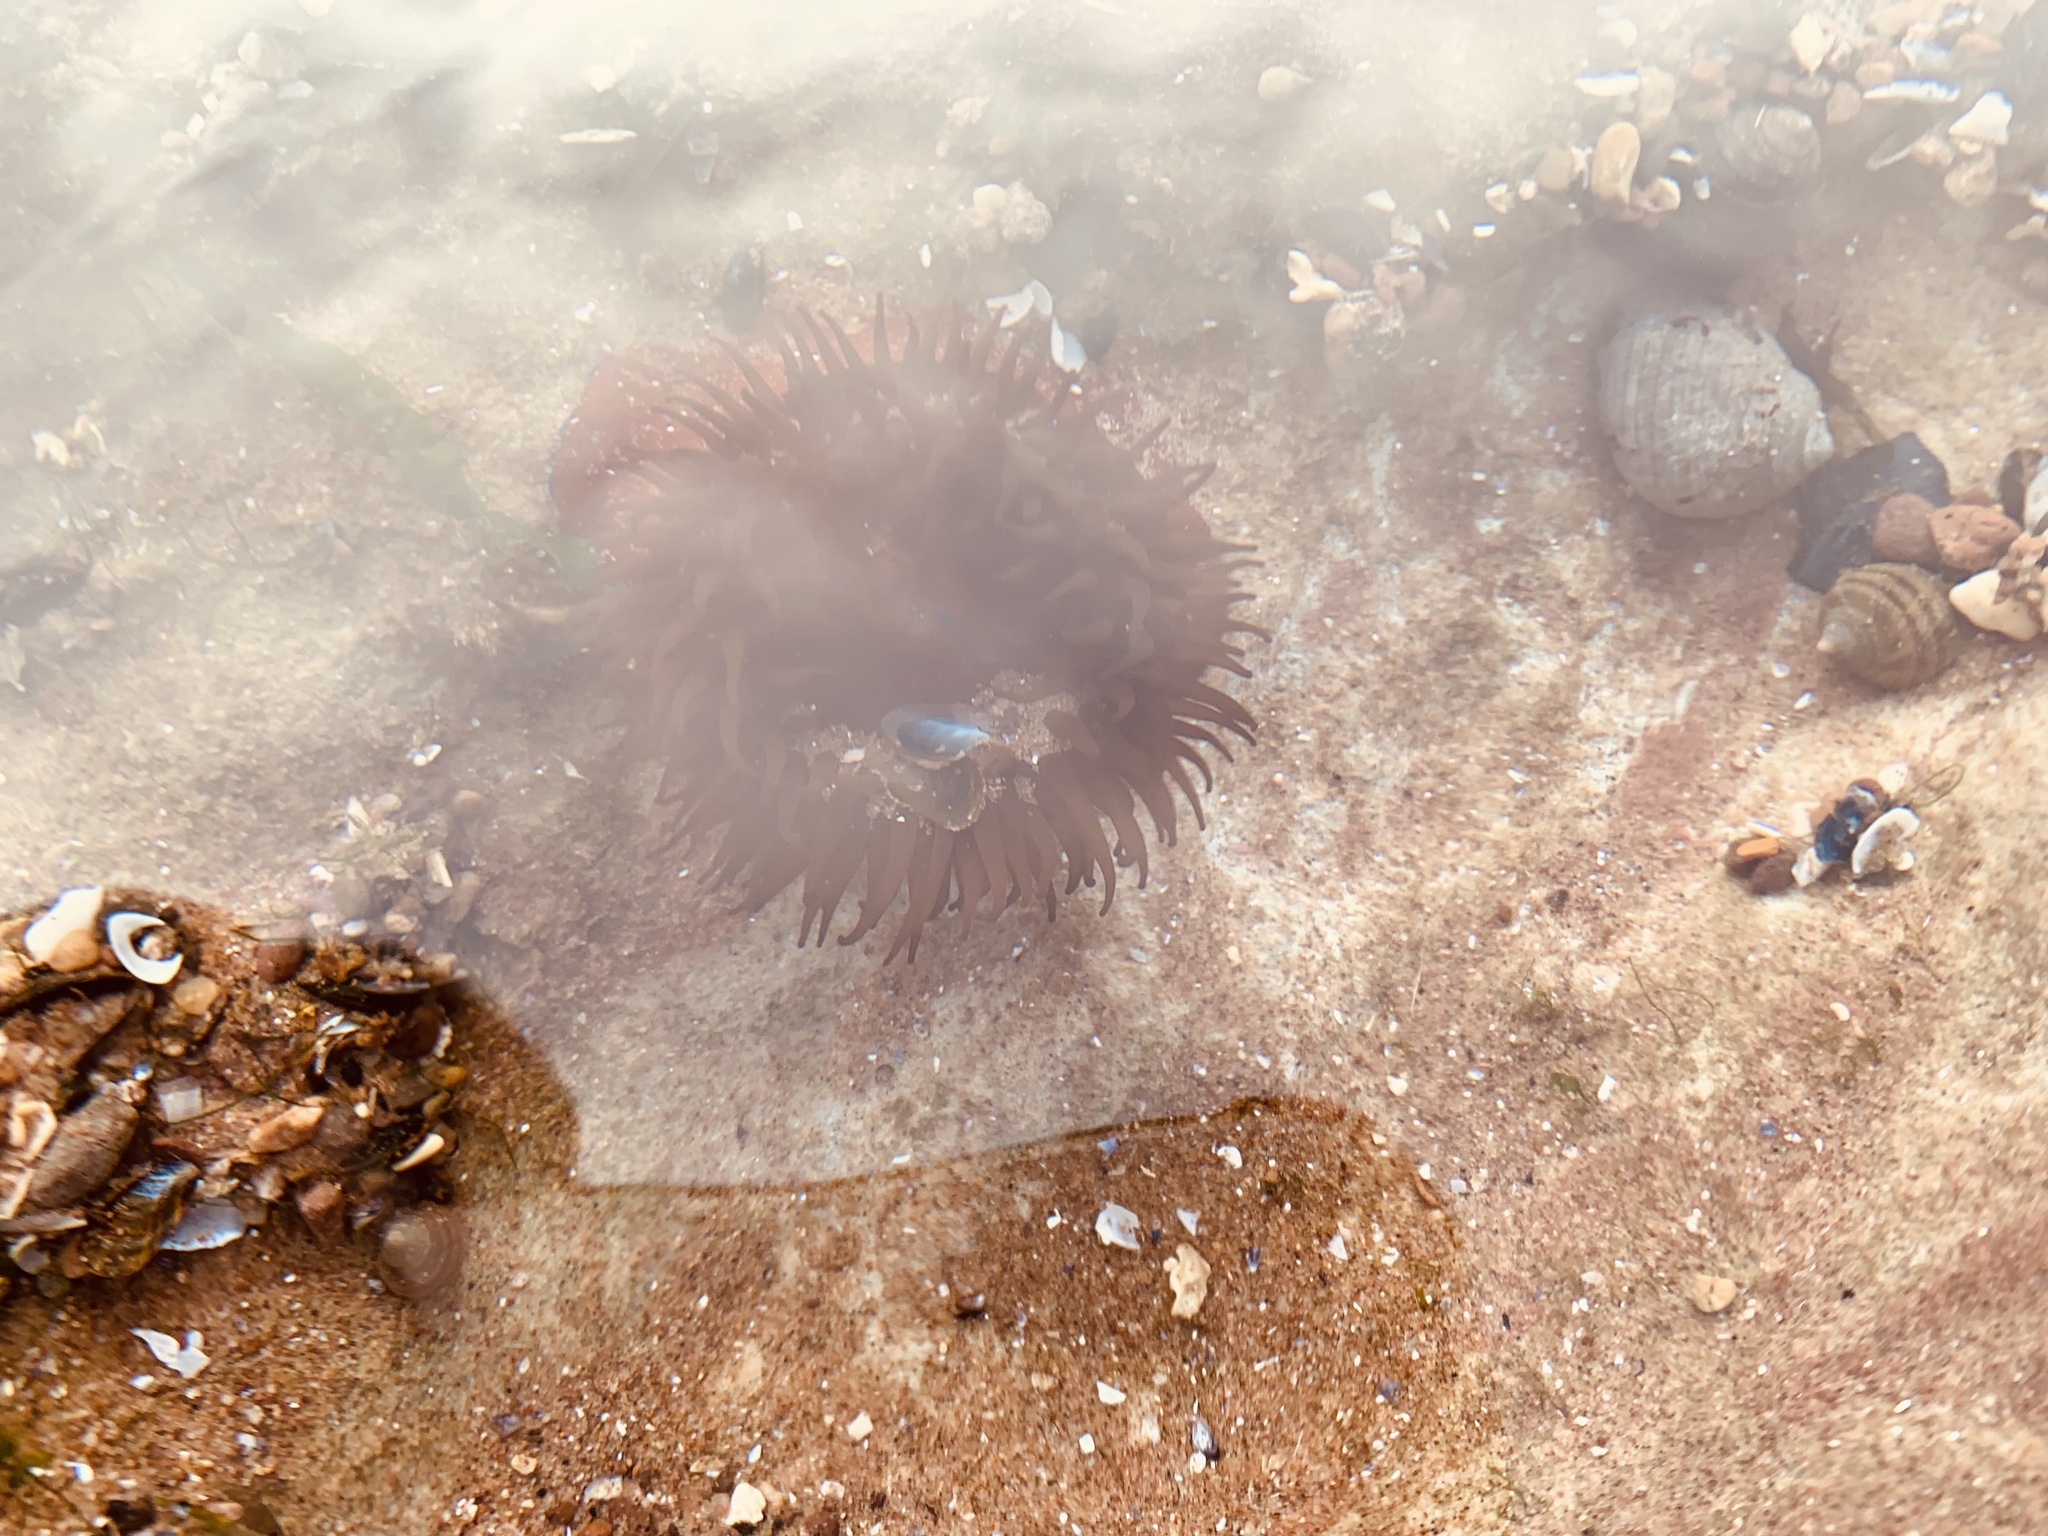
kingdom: Animalia
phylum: Cnidaria
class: Anthozoa
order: Actiniaria
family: Actiniidae
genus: Actinia
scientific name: Actinia equina
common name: Beadlet anemone
